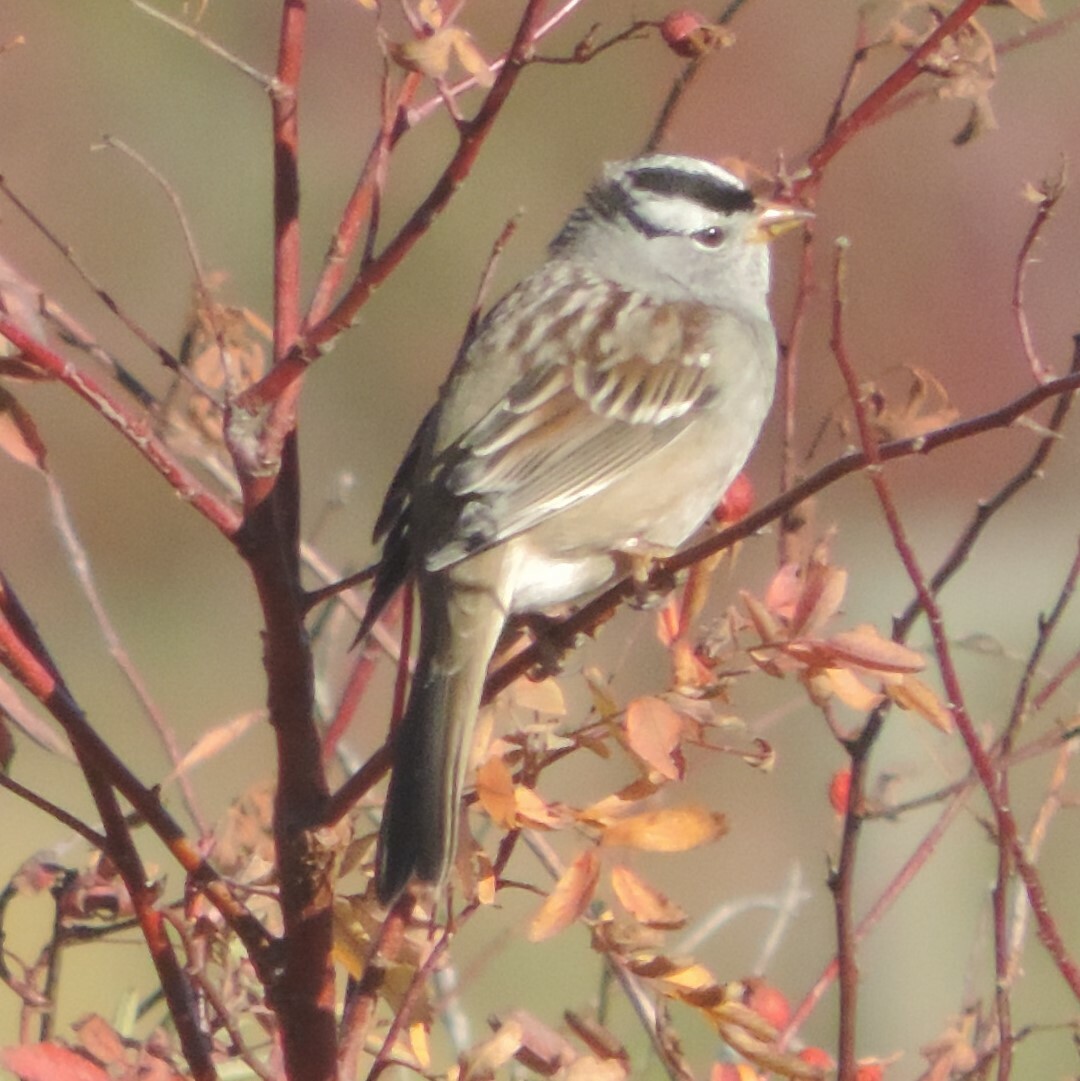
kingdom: Animalia
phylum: Chordata
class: Aves
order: Passeriformes
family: Passerellidae
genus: Zonotrichia
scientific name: Zonotrichia leucophrys
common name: White-crowned sparrow
